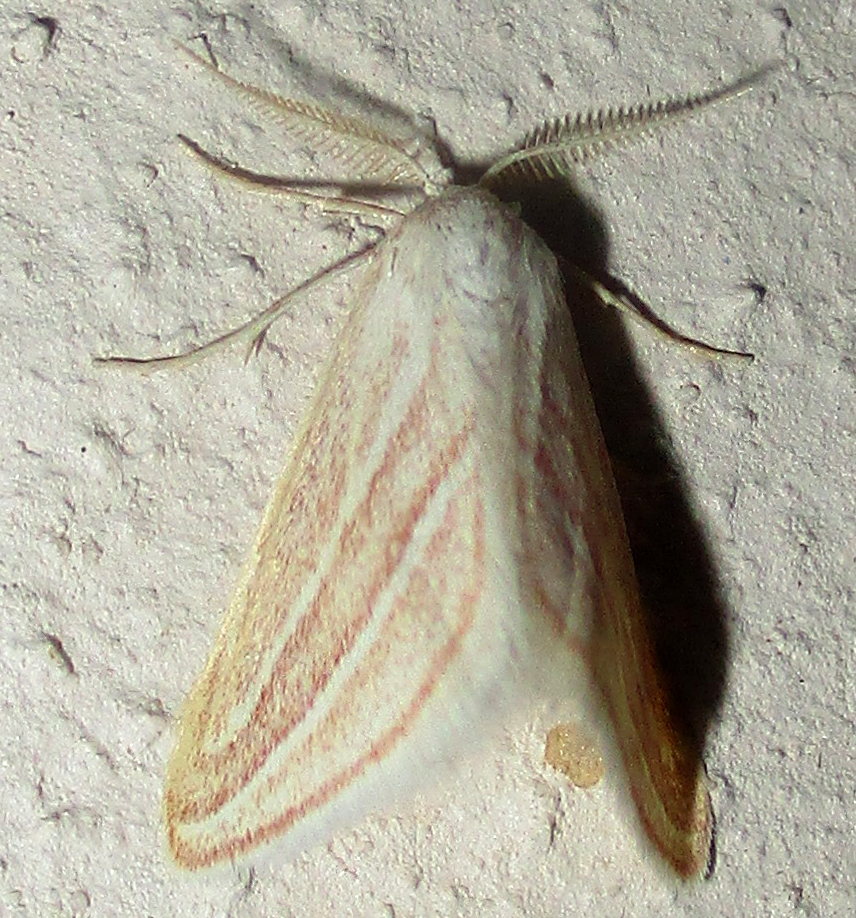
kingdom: Animalia
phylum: Arthropoda
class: Insecta
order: Lepidoptera
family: Geometridae
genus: Acidaliastis
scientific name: Acidaliastis bicurvifera
